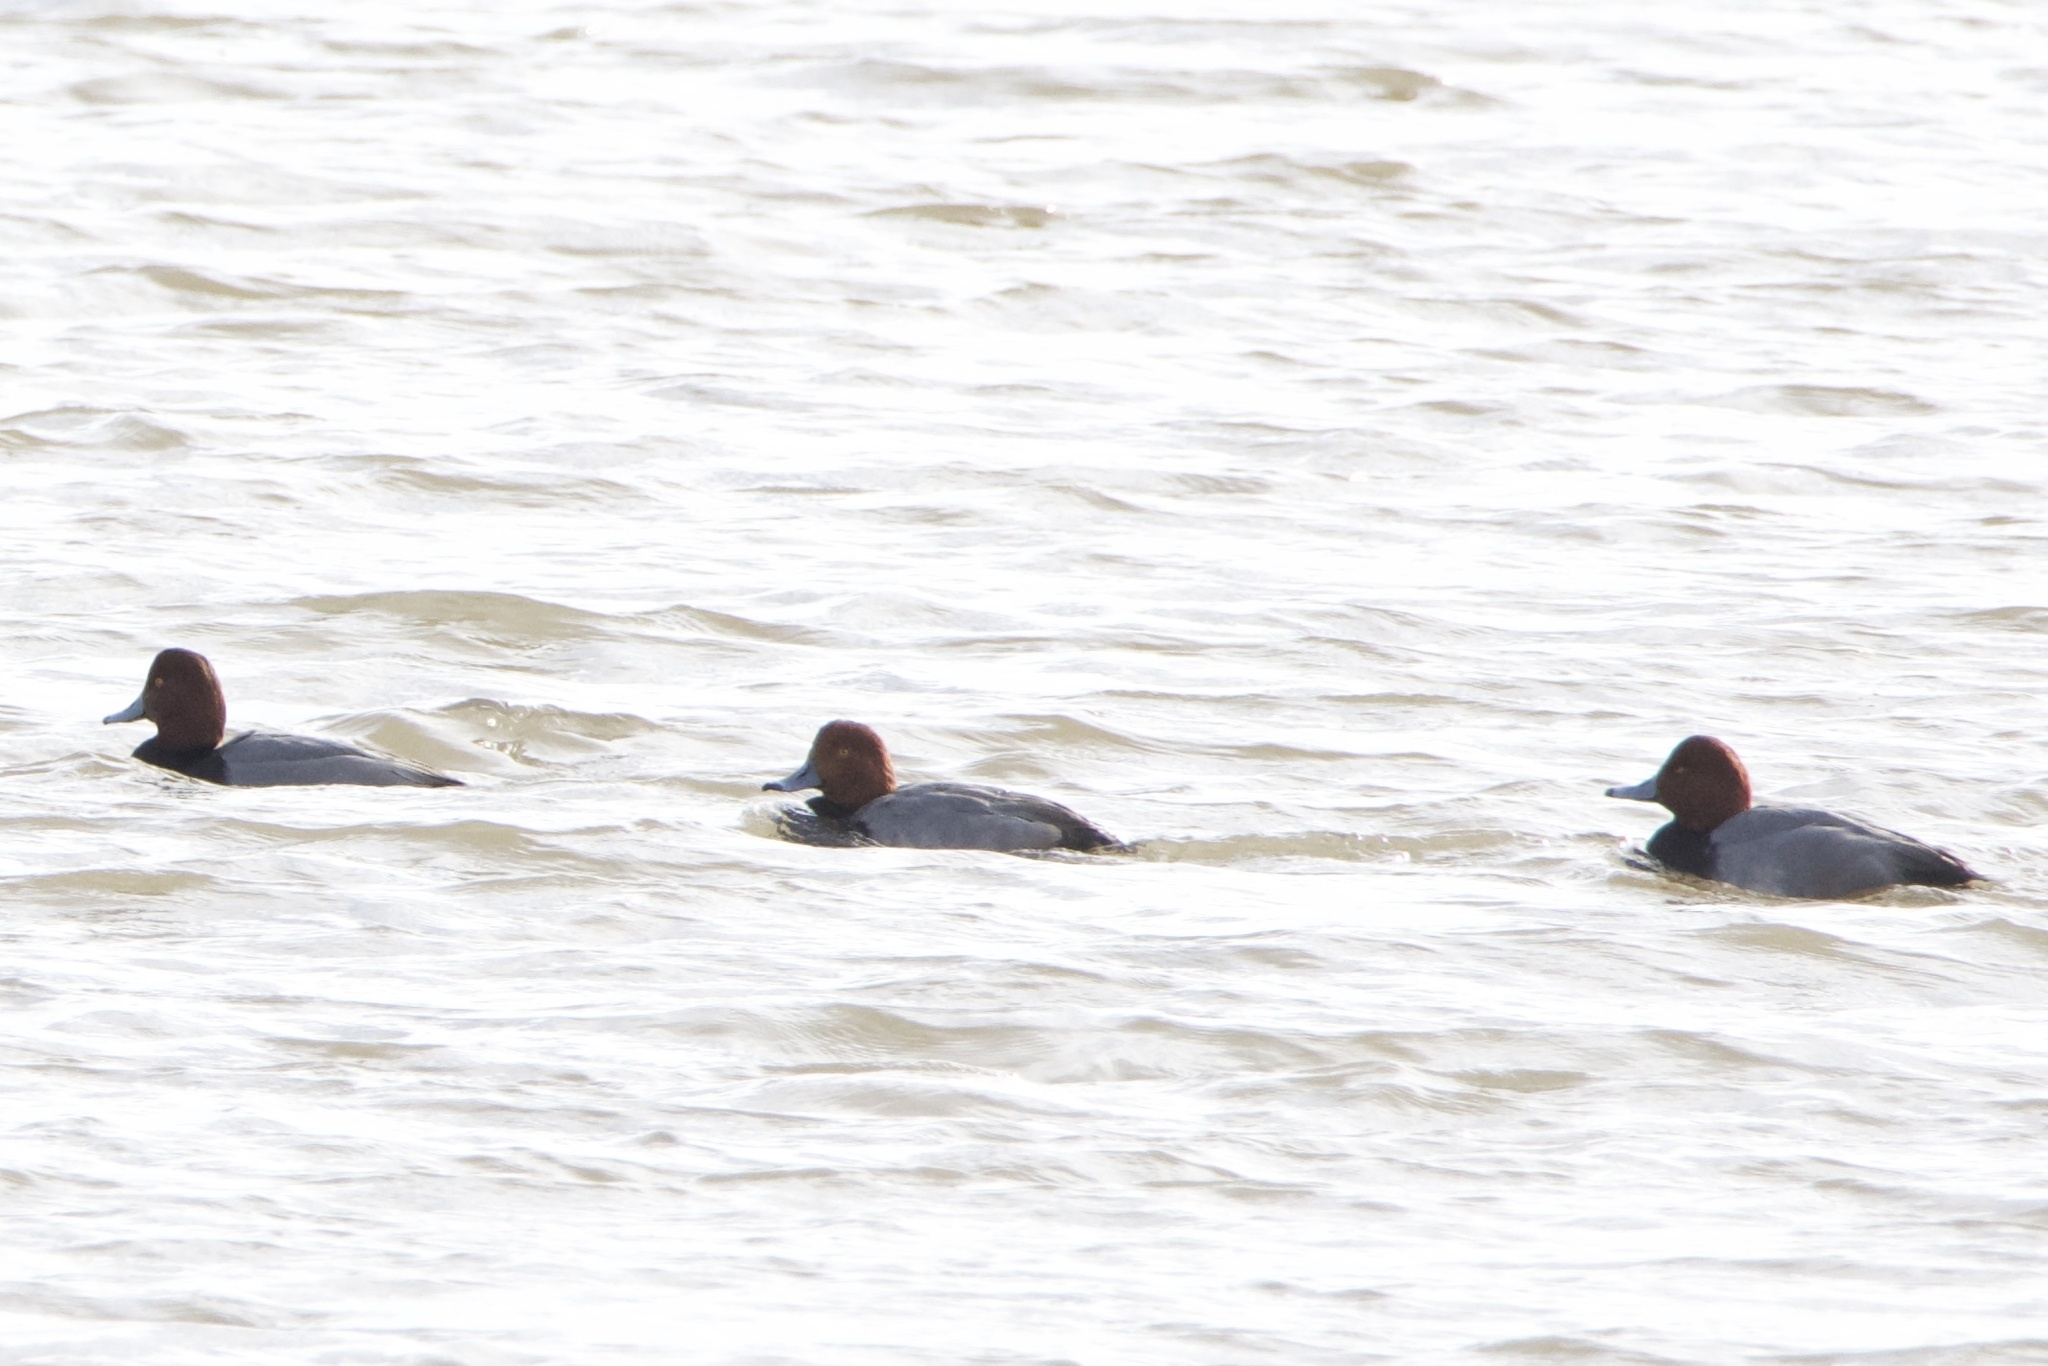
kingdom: Animalia
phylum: Chordata
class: Aves
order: Anseriformes
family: Anatidae
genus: Aythya
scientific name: Aythya americana
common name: Redhead
